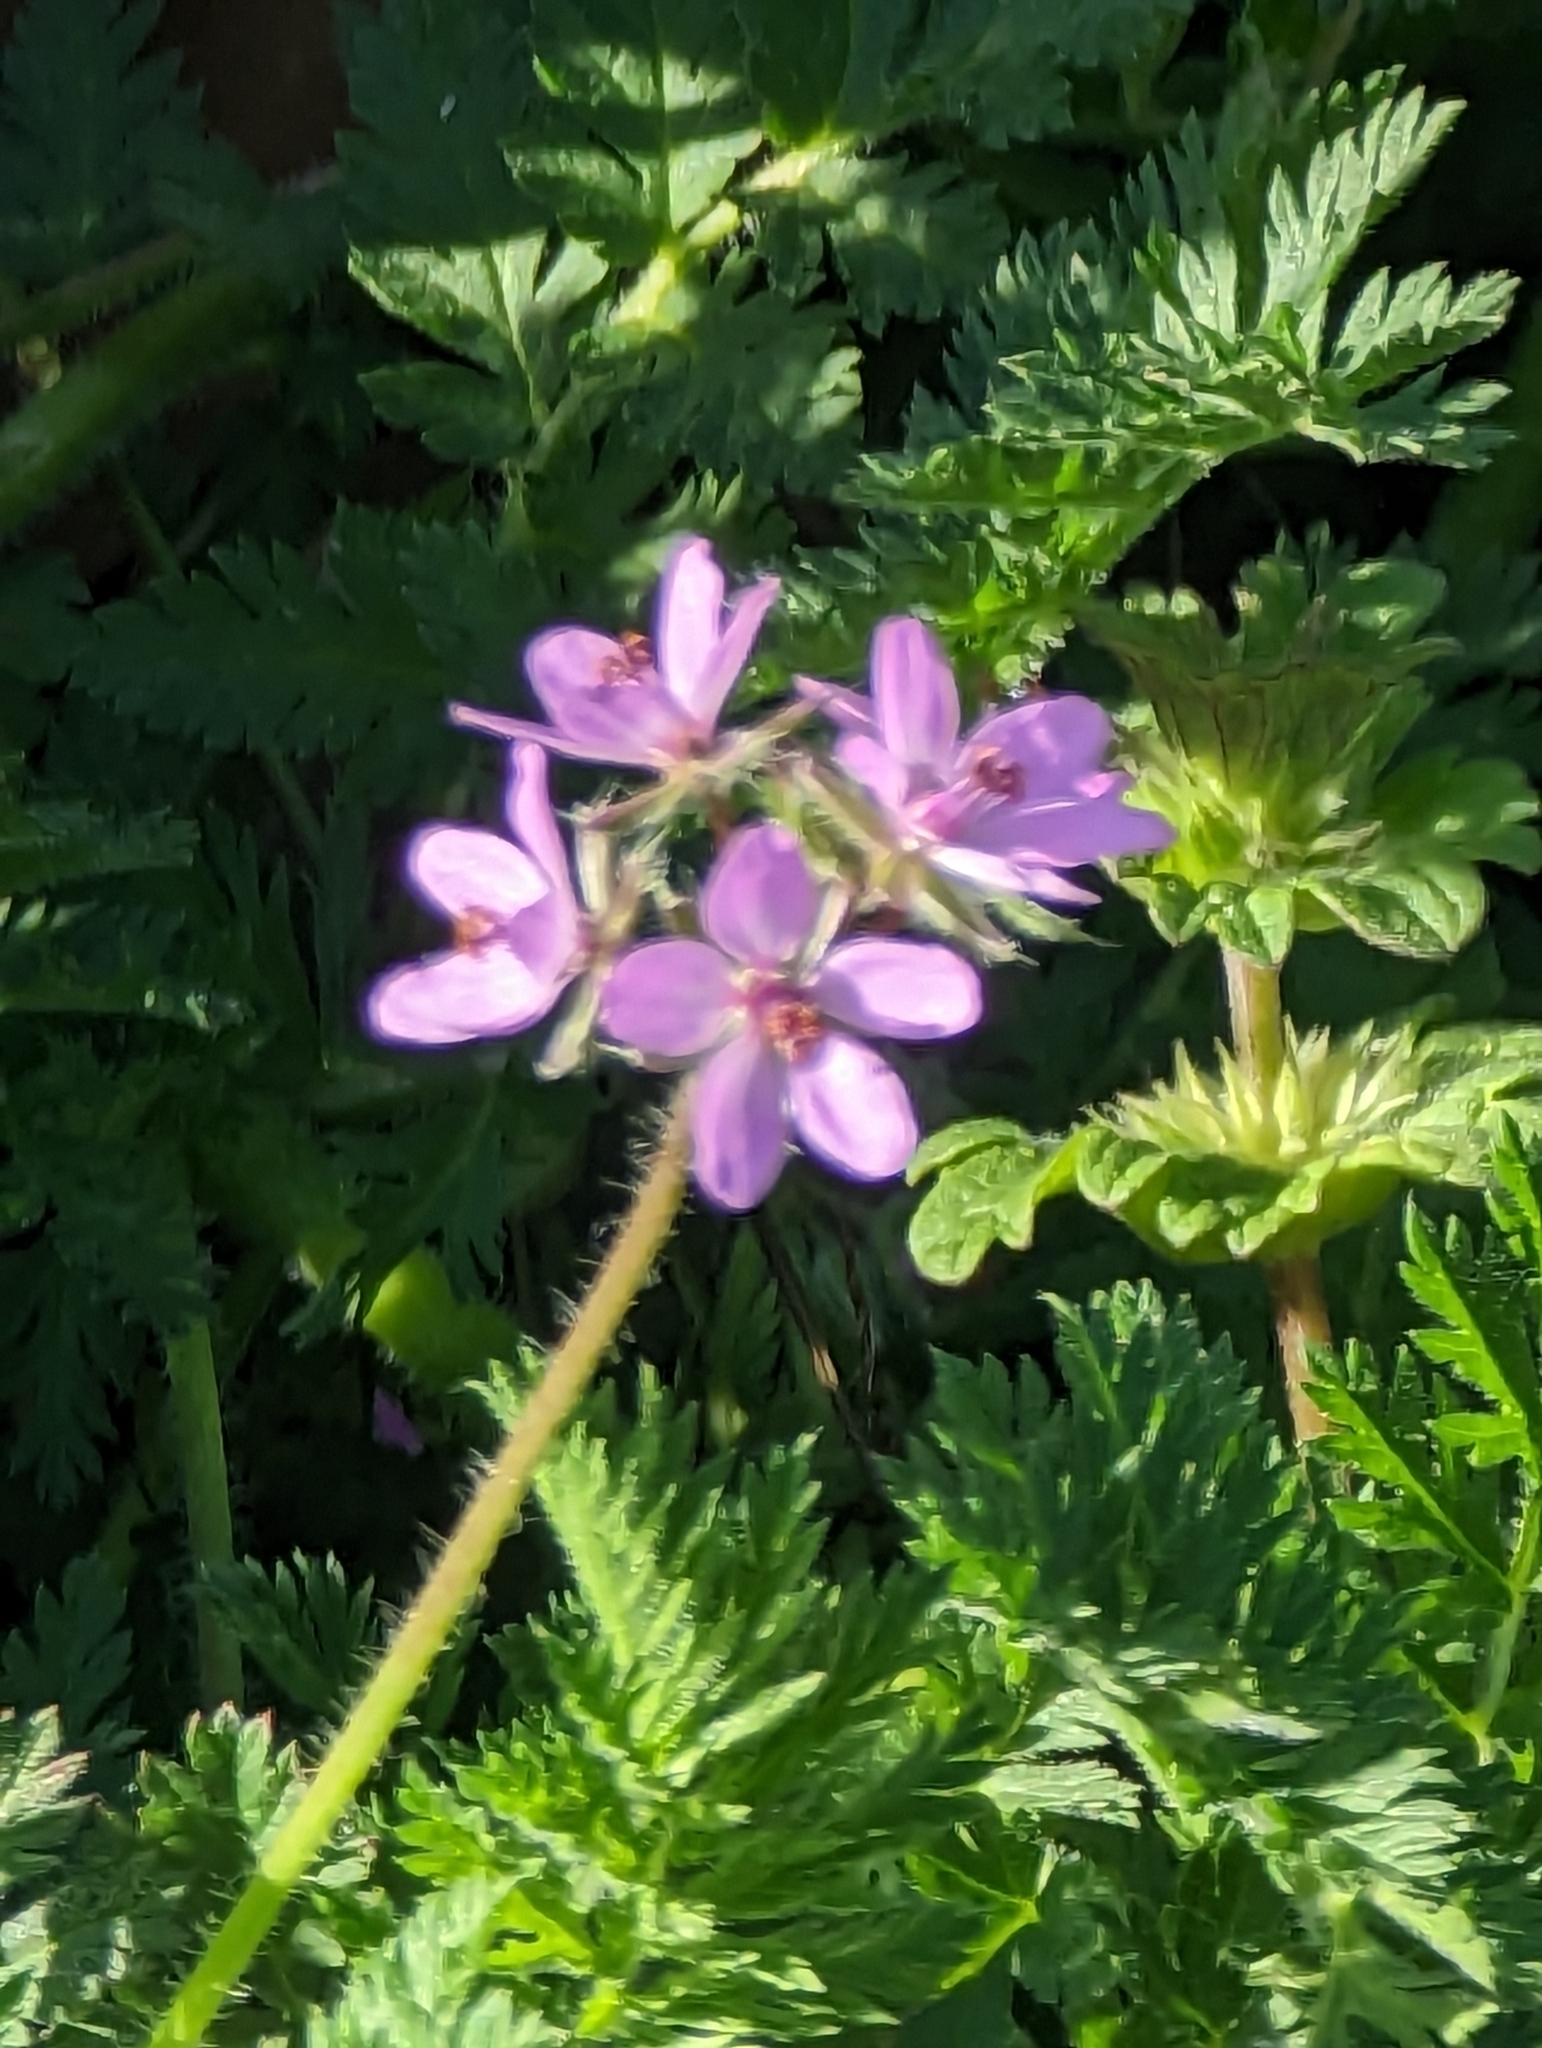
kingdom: Plantae
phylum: Tracheophyta
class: Magnoliopsida
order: Geraniales
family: Geraniaceae
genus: Erodium
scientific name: Erodium cicutarium
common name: Common stork's-bill
